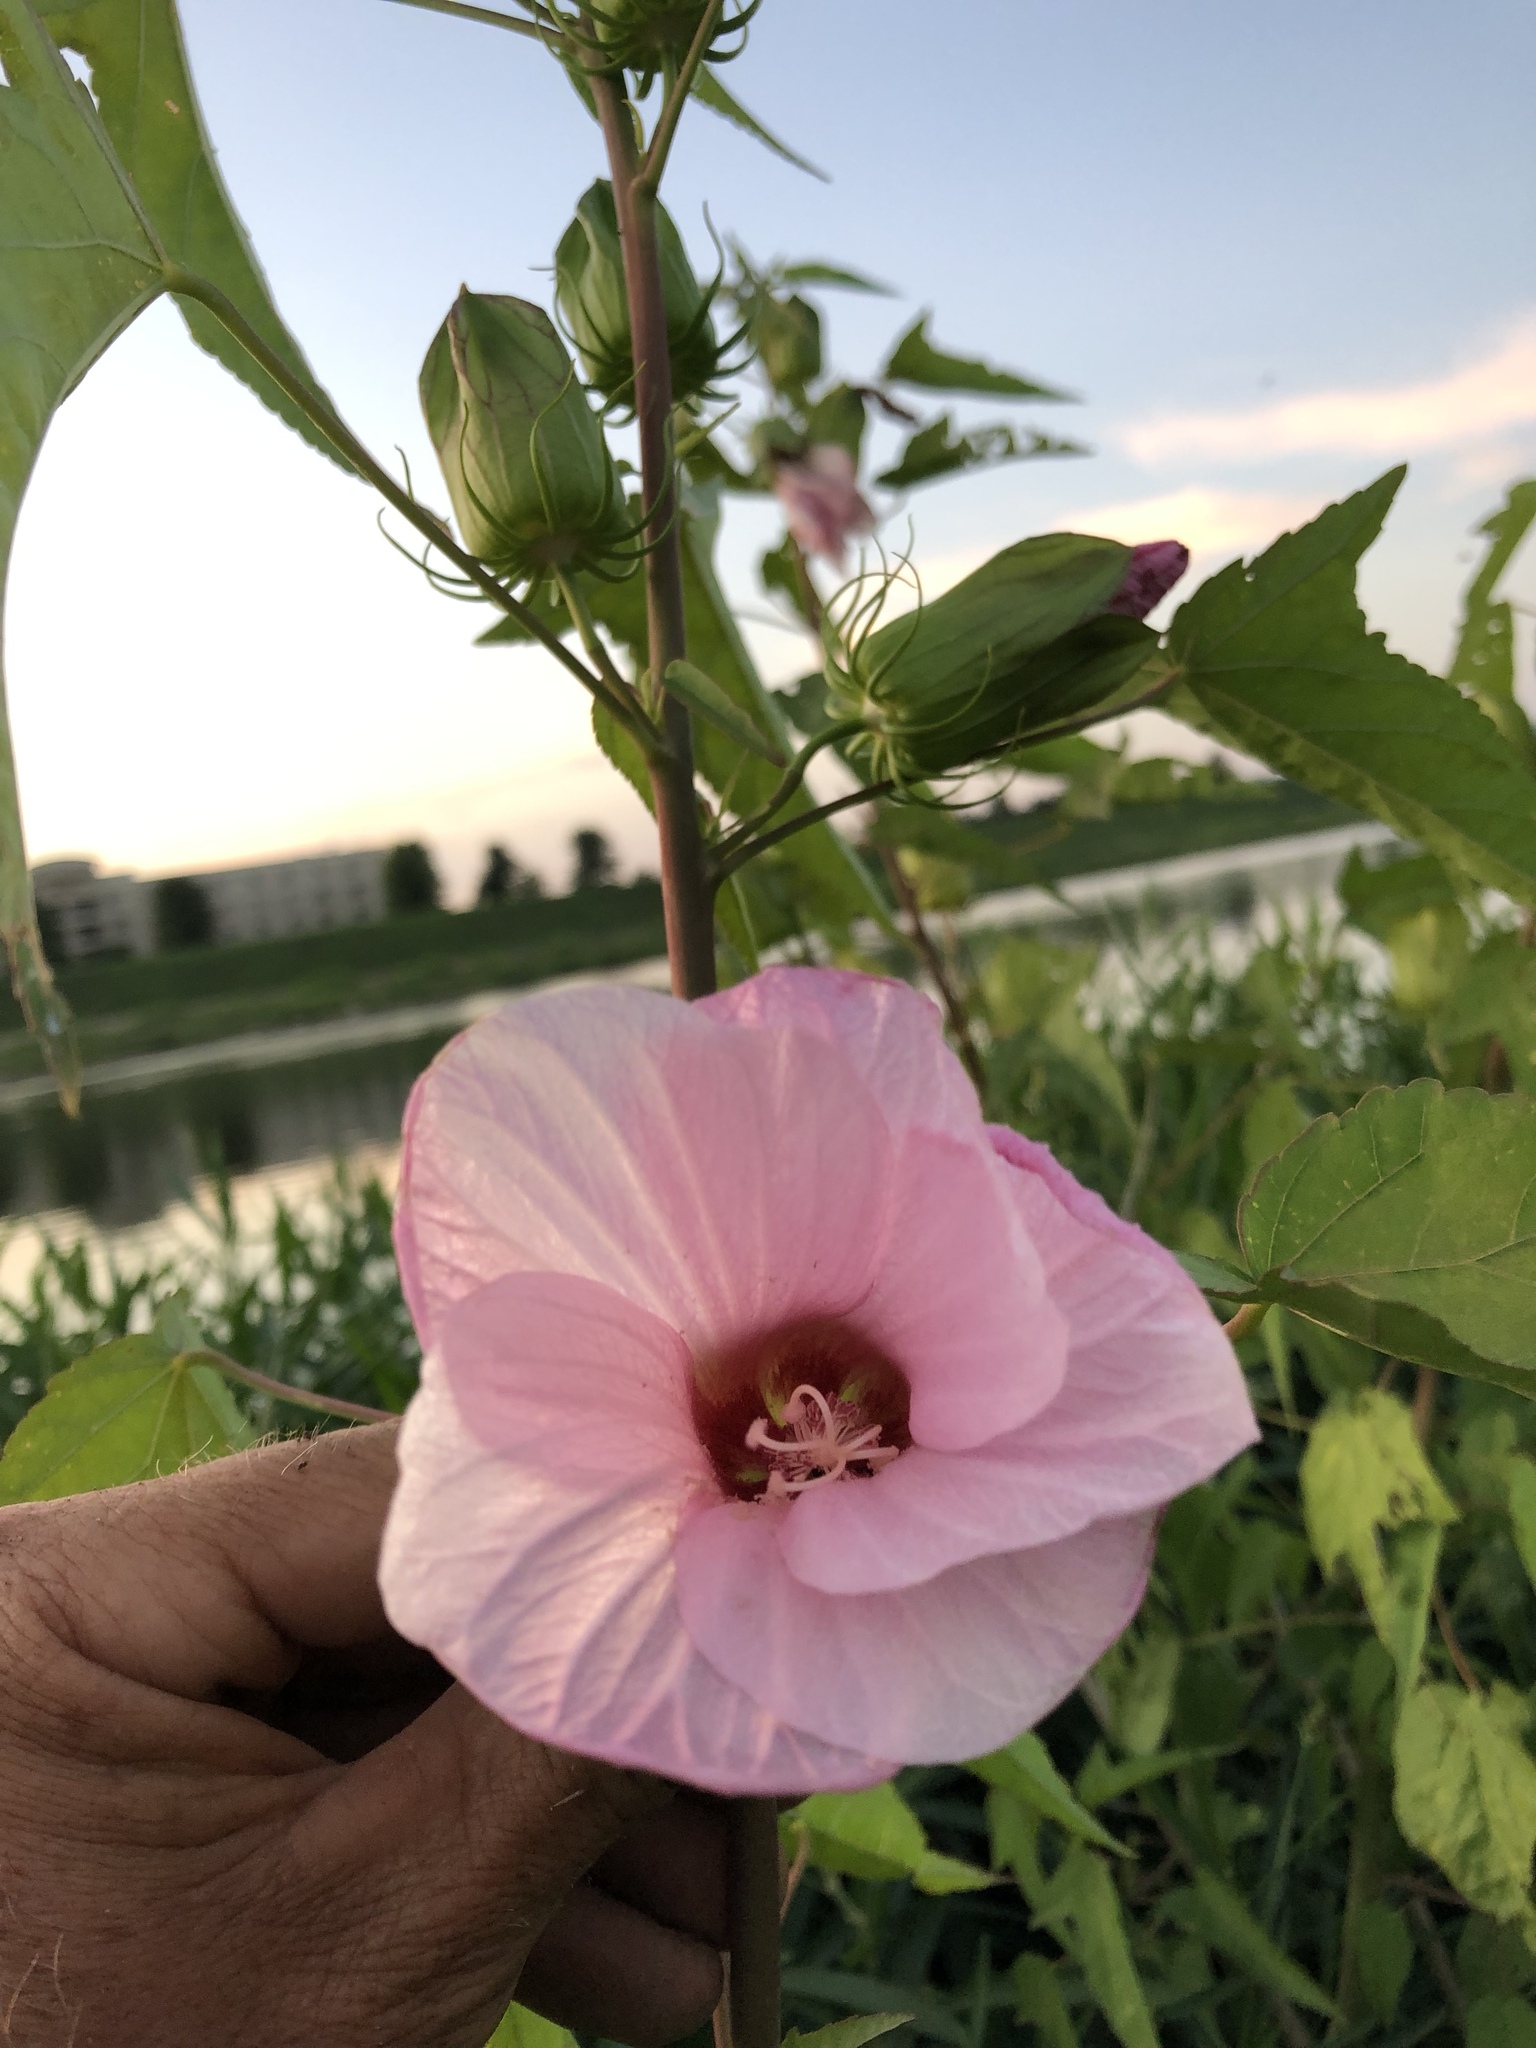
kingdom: Plantae
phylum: Tracheophyta
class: Magnoliopsida
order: Malvales
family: Malvaceae
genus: Hibiscus
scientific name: Hibiscus laevis
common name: Scarlet rose-mallow
